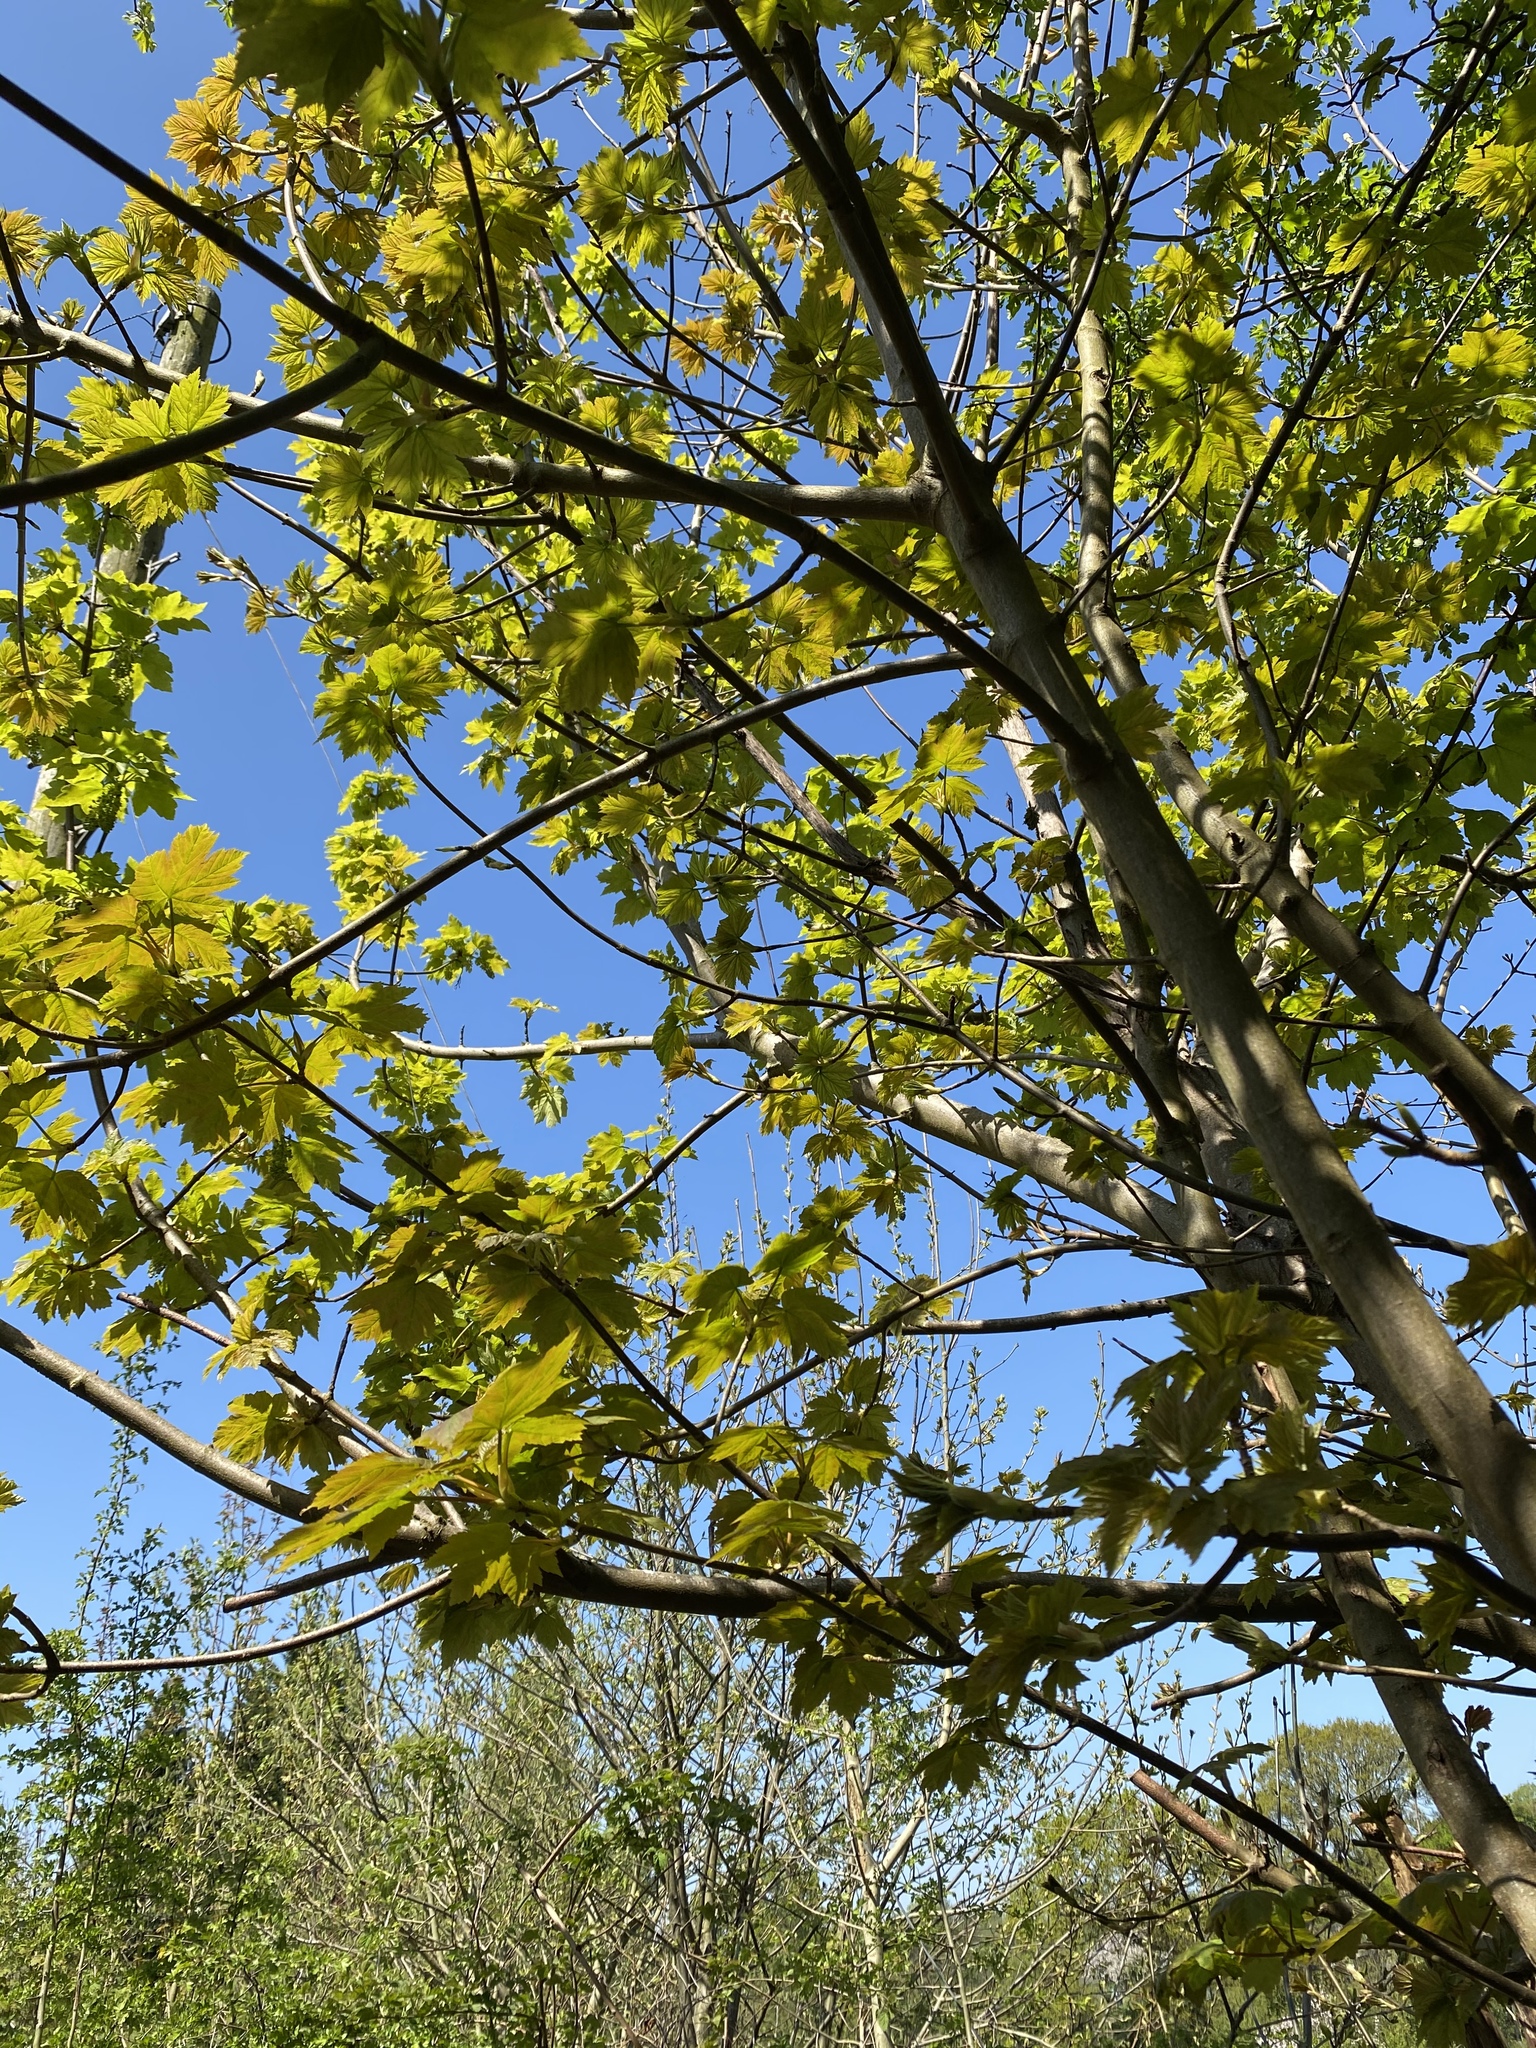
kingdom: Plantae
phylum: Tracheophyta
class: Magnoliopsida
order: Sapindales
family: Sapindaceae
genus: Acer
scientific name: Acer pseudoplatanus
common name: Sycamore
